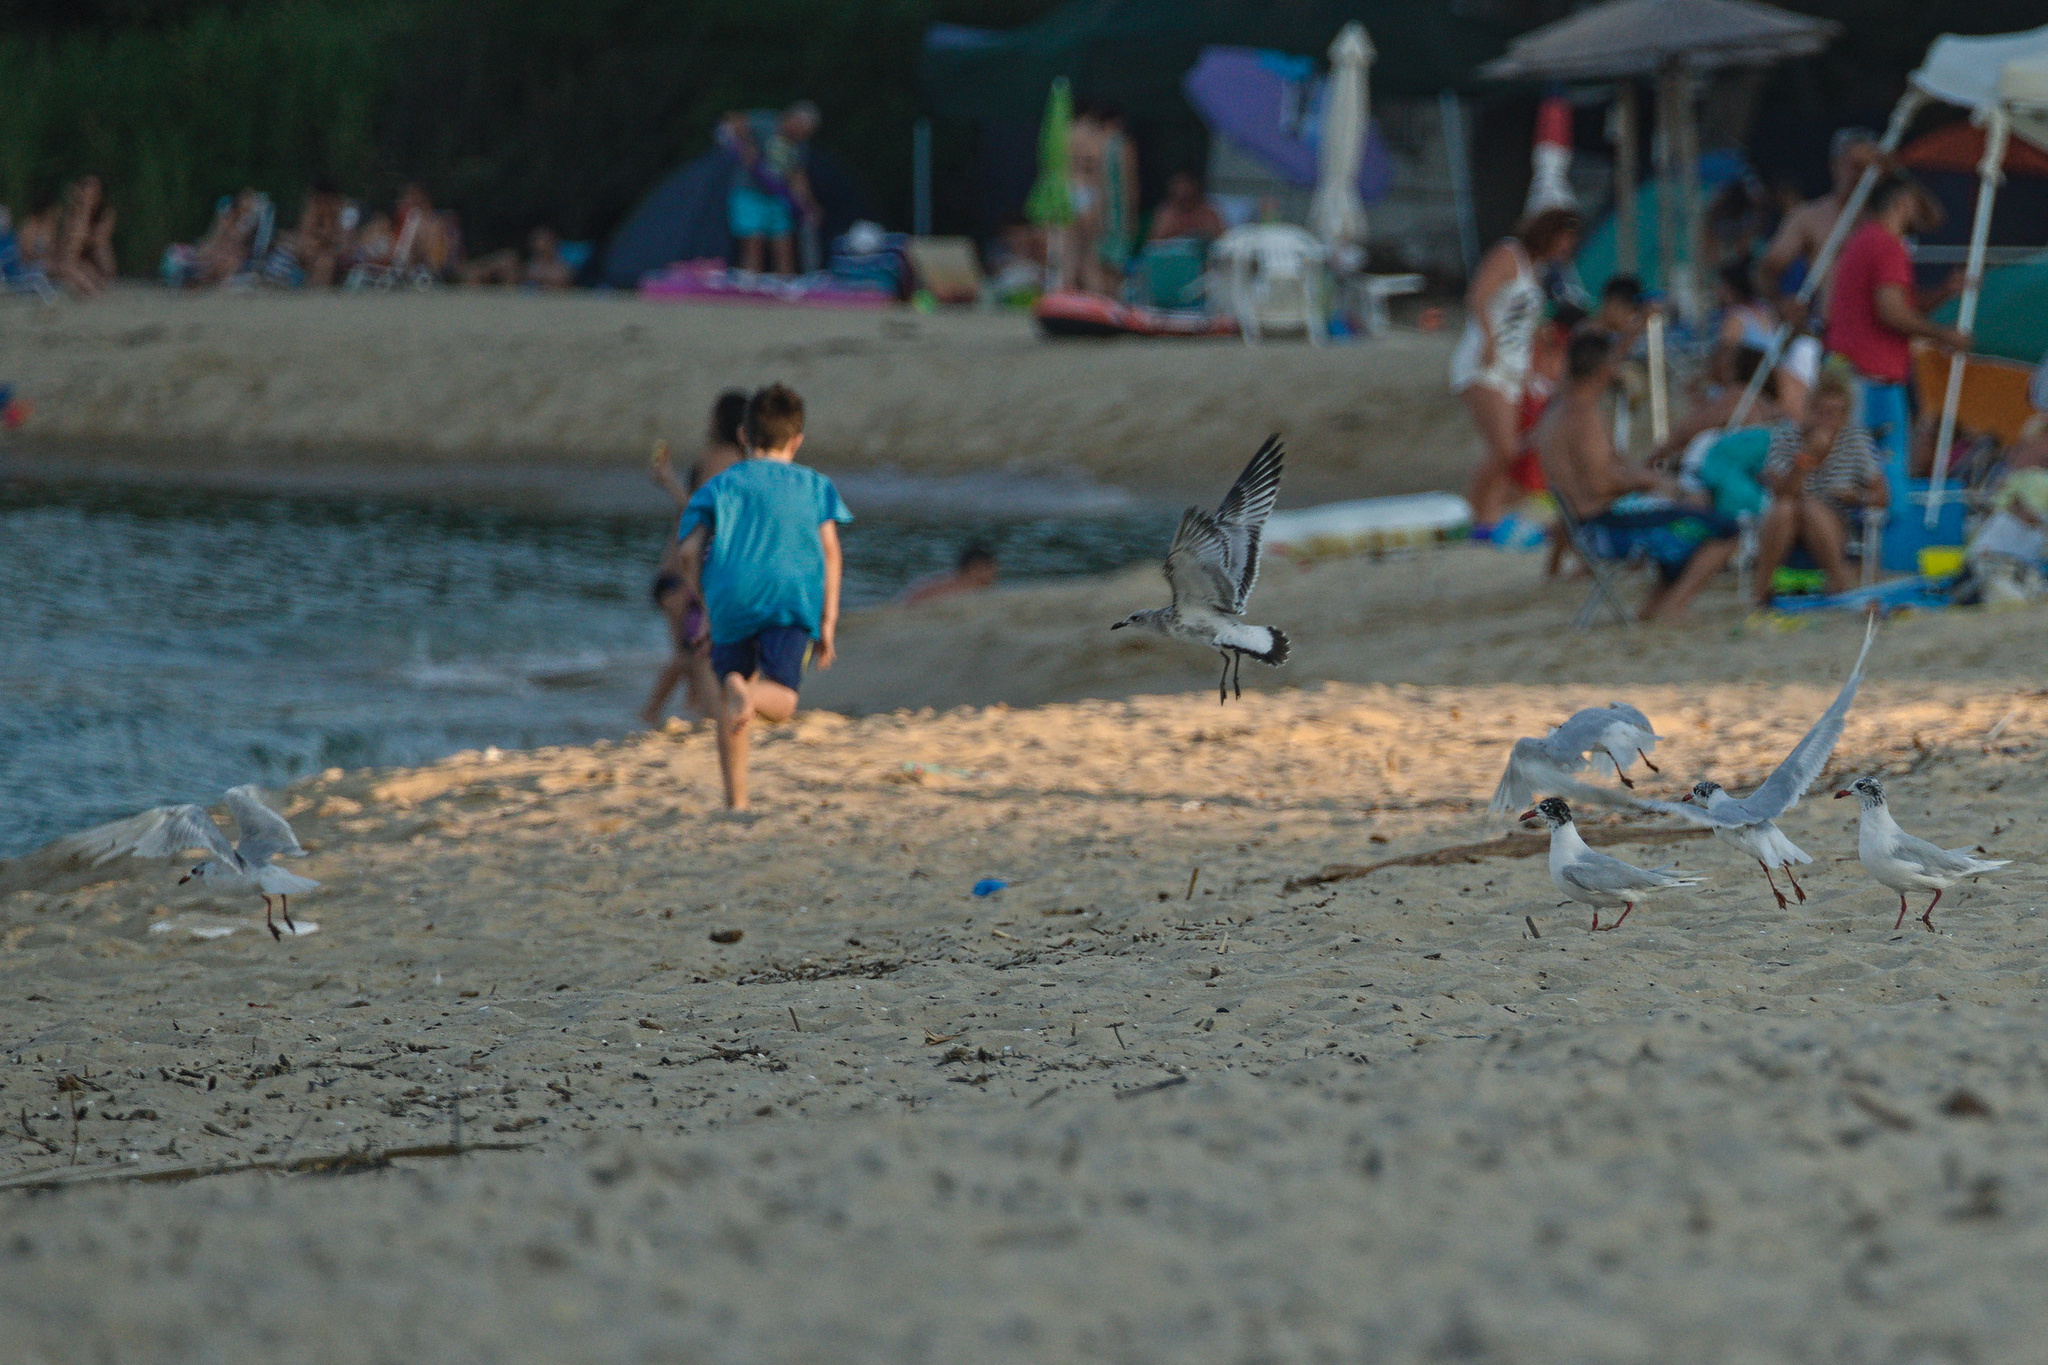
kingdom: Animalia
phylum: Chordata
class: Aves
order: Charadriiformes
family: Laridae
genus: Ichthyaetus
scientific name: Ichthyaetus melanocephalus
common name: Mediterranean gull
